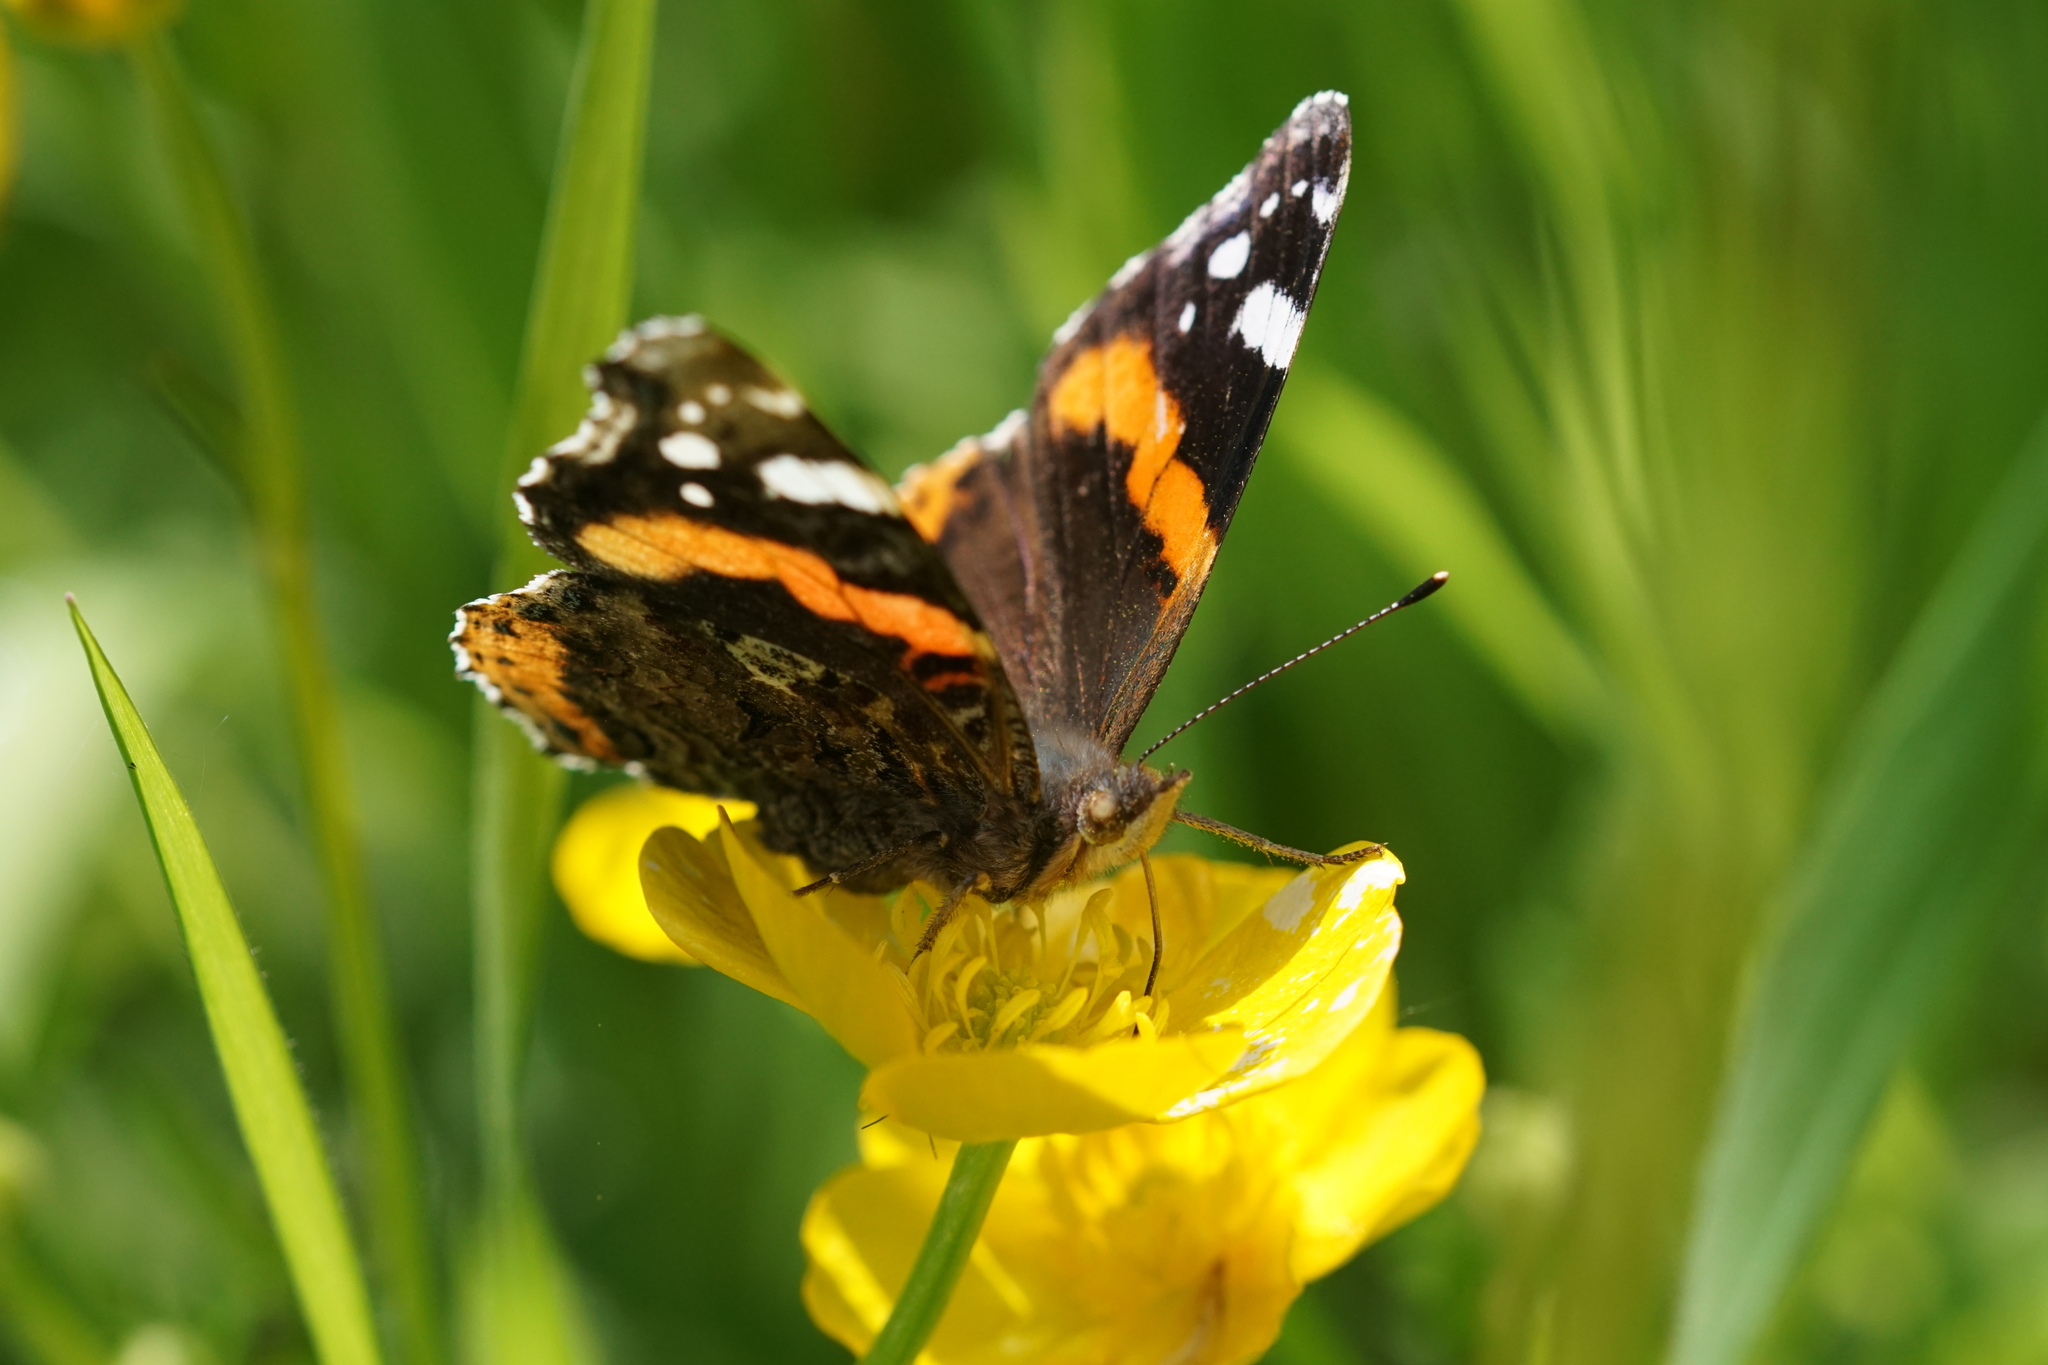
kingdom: Animalia
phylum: Arthropoda
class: Insecta
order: Lepidoptera
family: Nymphalidae
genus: Vanessa
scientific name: Vanessa atalanta
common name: Red admiral
